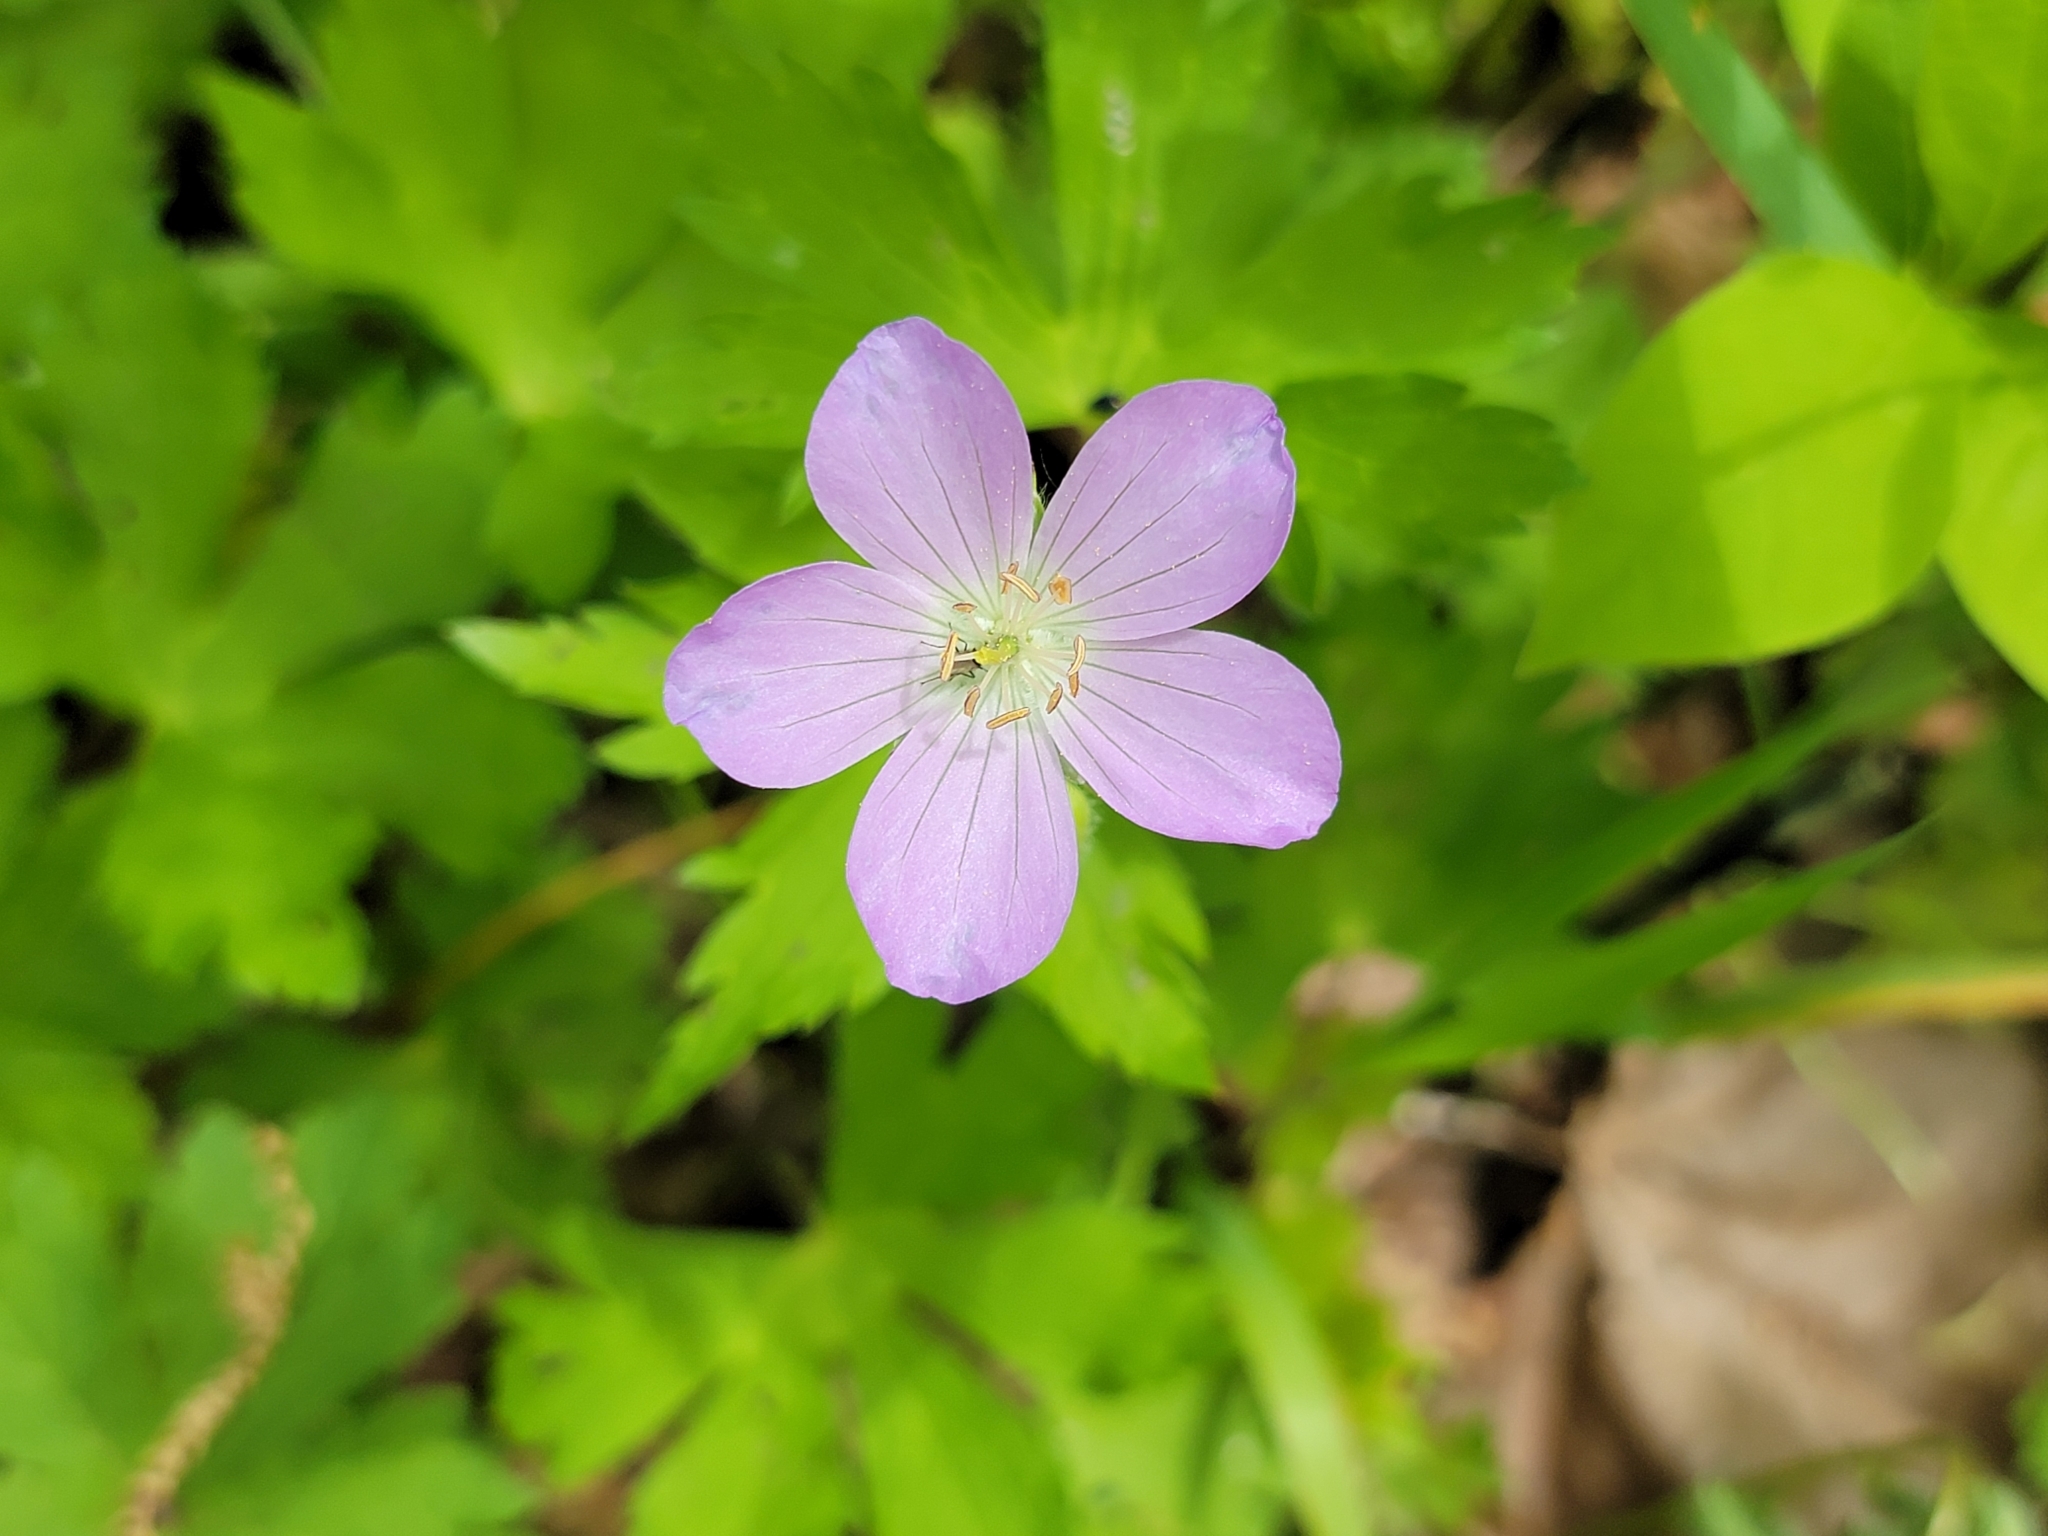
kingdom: Plantae
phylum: Tracheophyta
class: Magnoliopsida
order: Geraniales
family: Geraniaceae
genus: Geranium
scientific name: Geranium maculatum
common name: Spotted geranium
